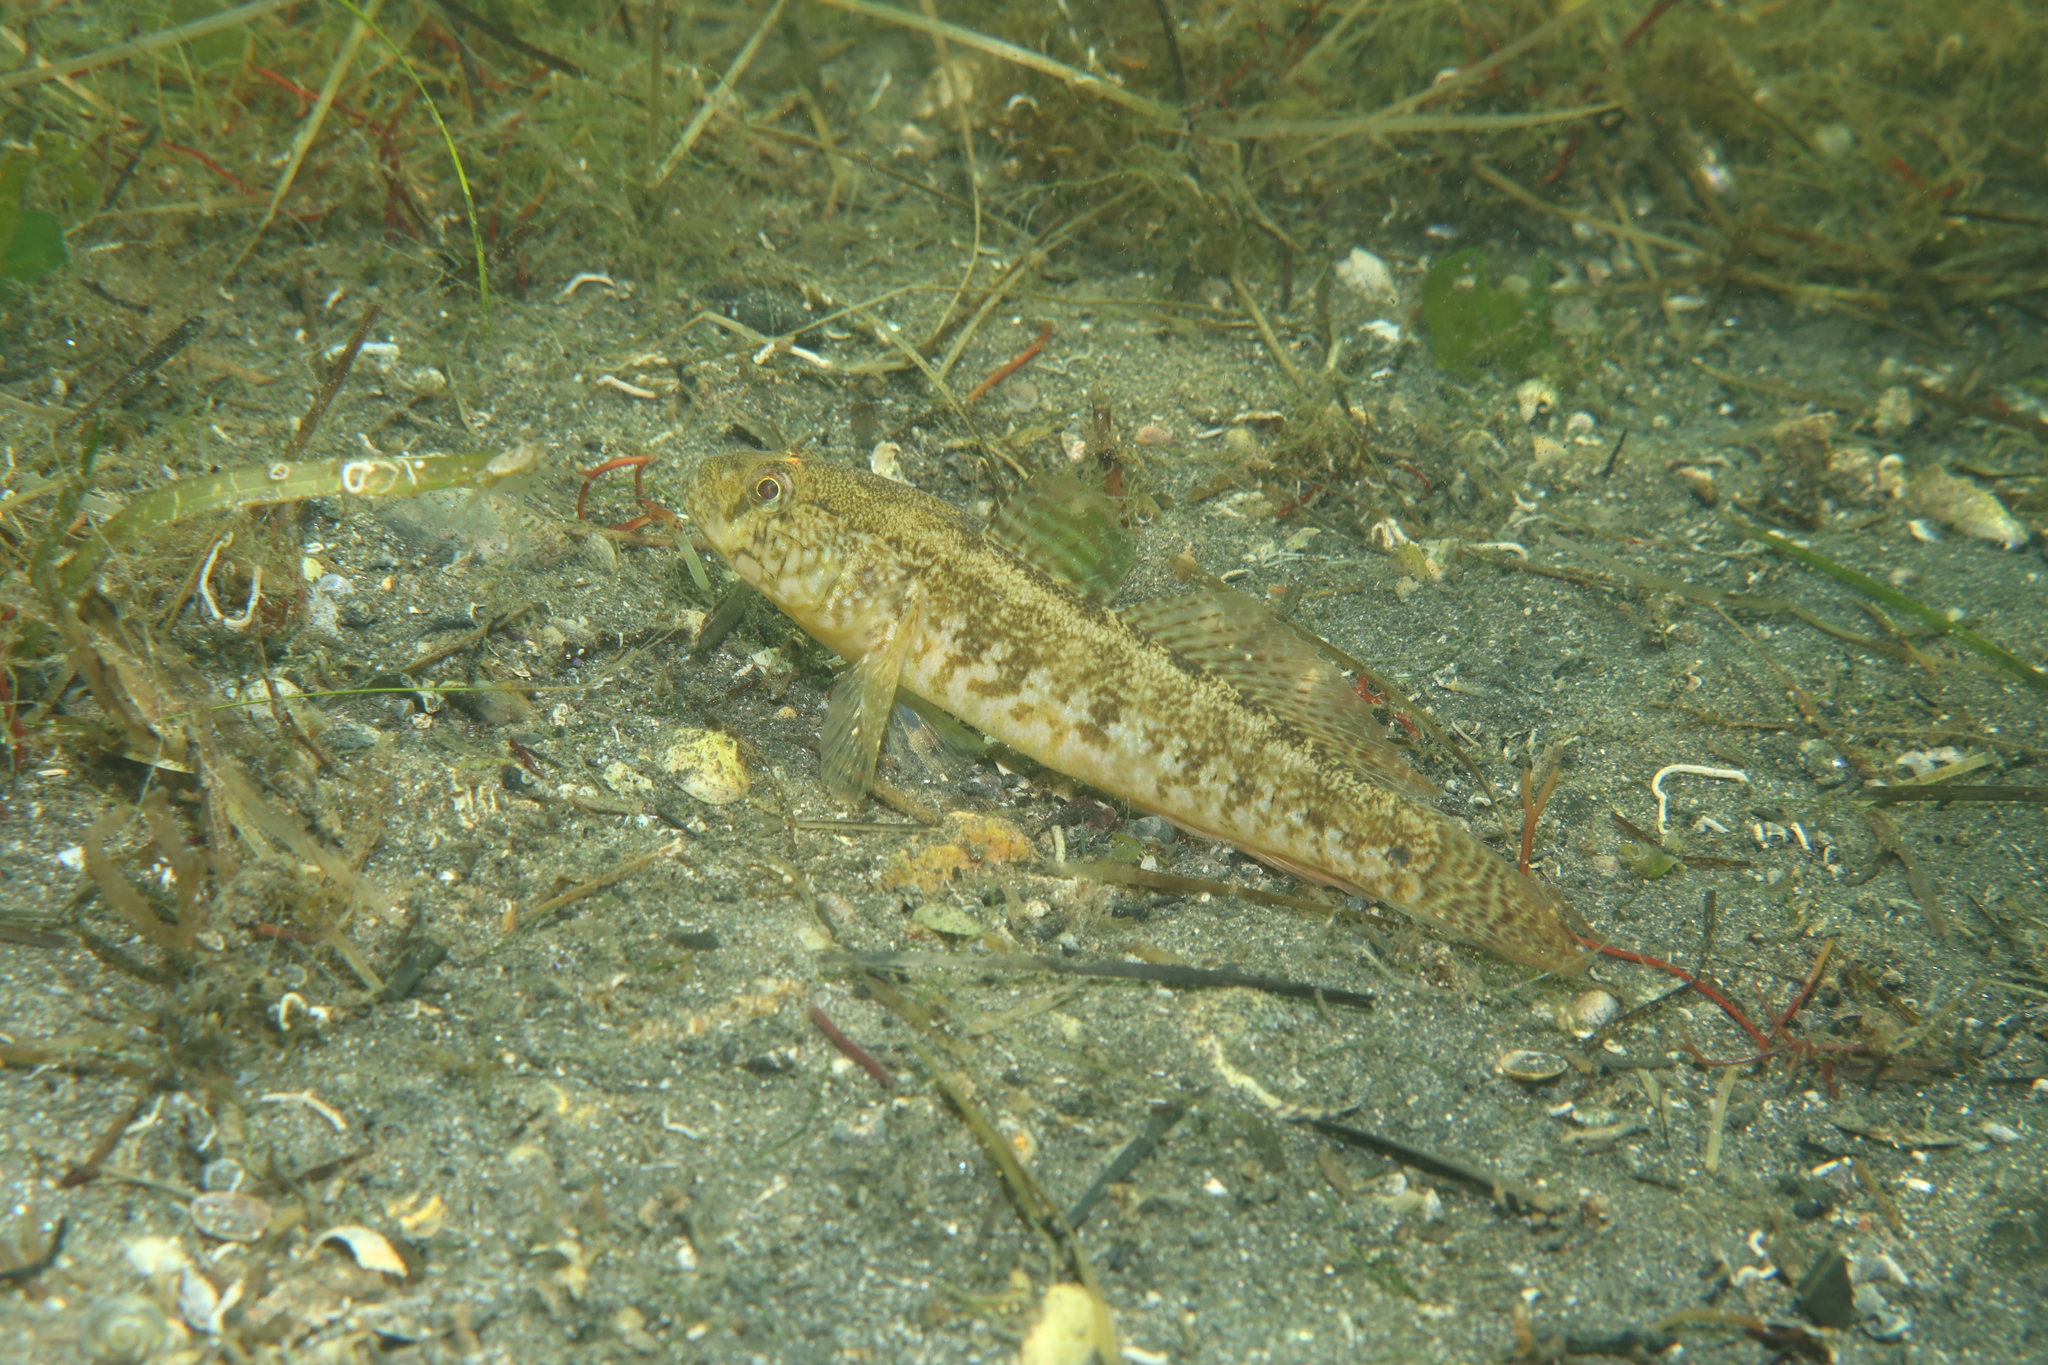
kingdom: Animalia
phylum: Chordata
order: Perciformes
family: Gobiidae
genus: Zosterisessor
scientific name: Zosterisessor ophiocephalus
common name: Grass goby
